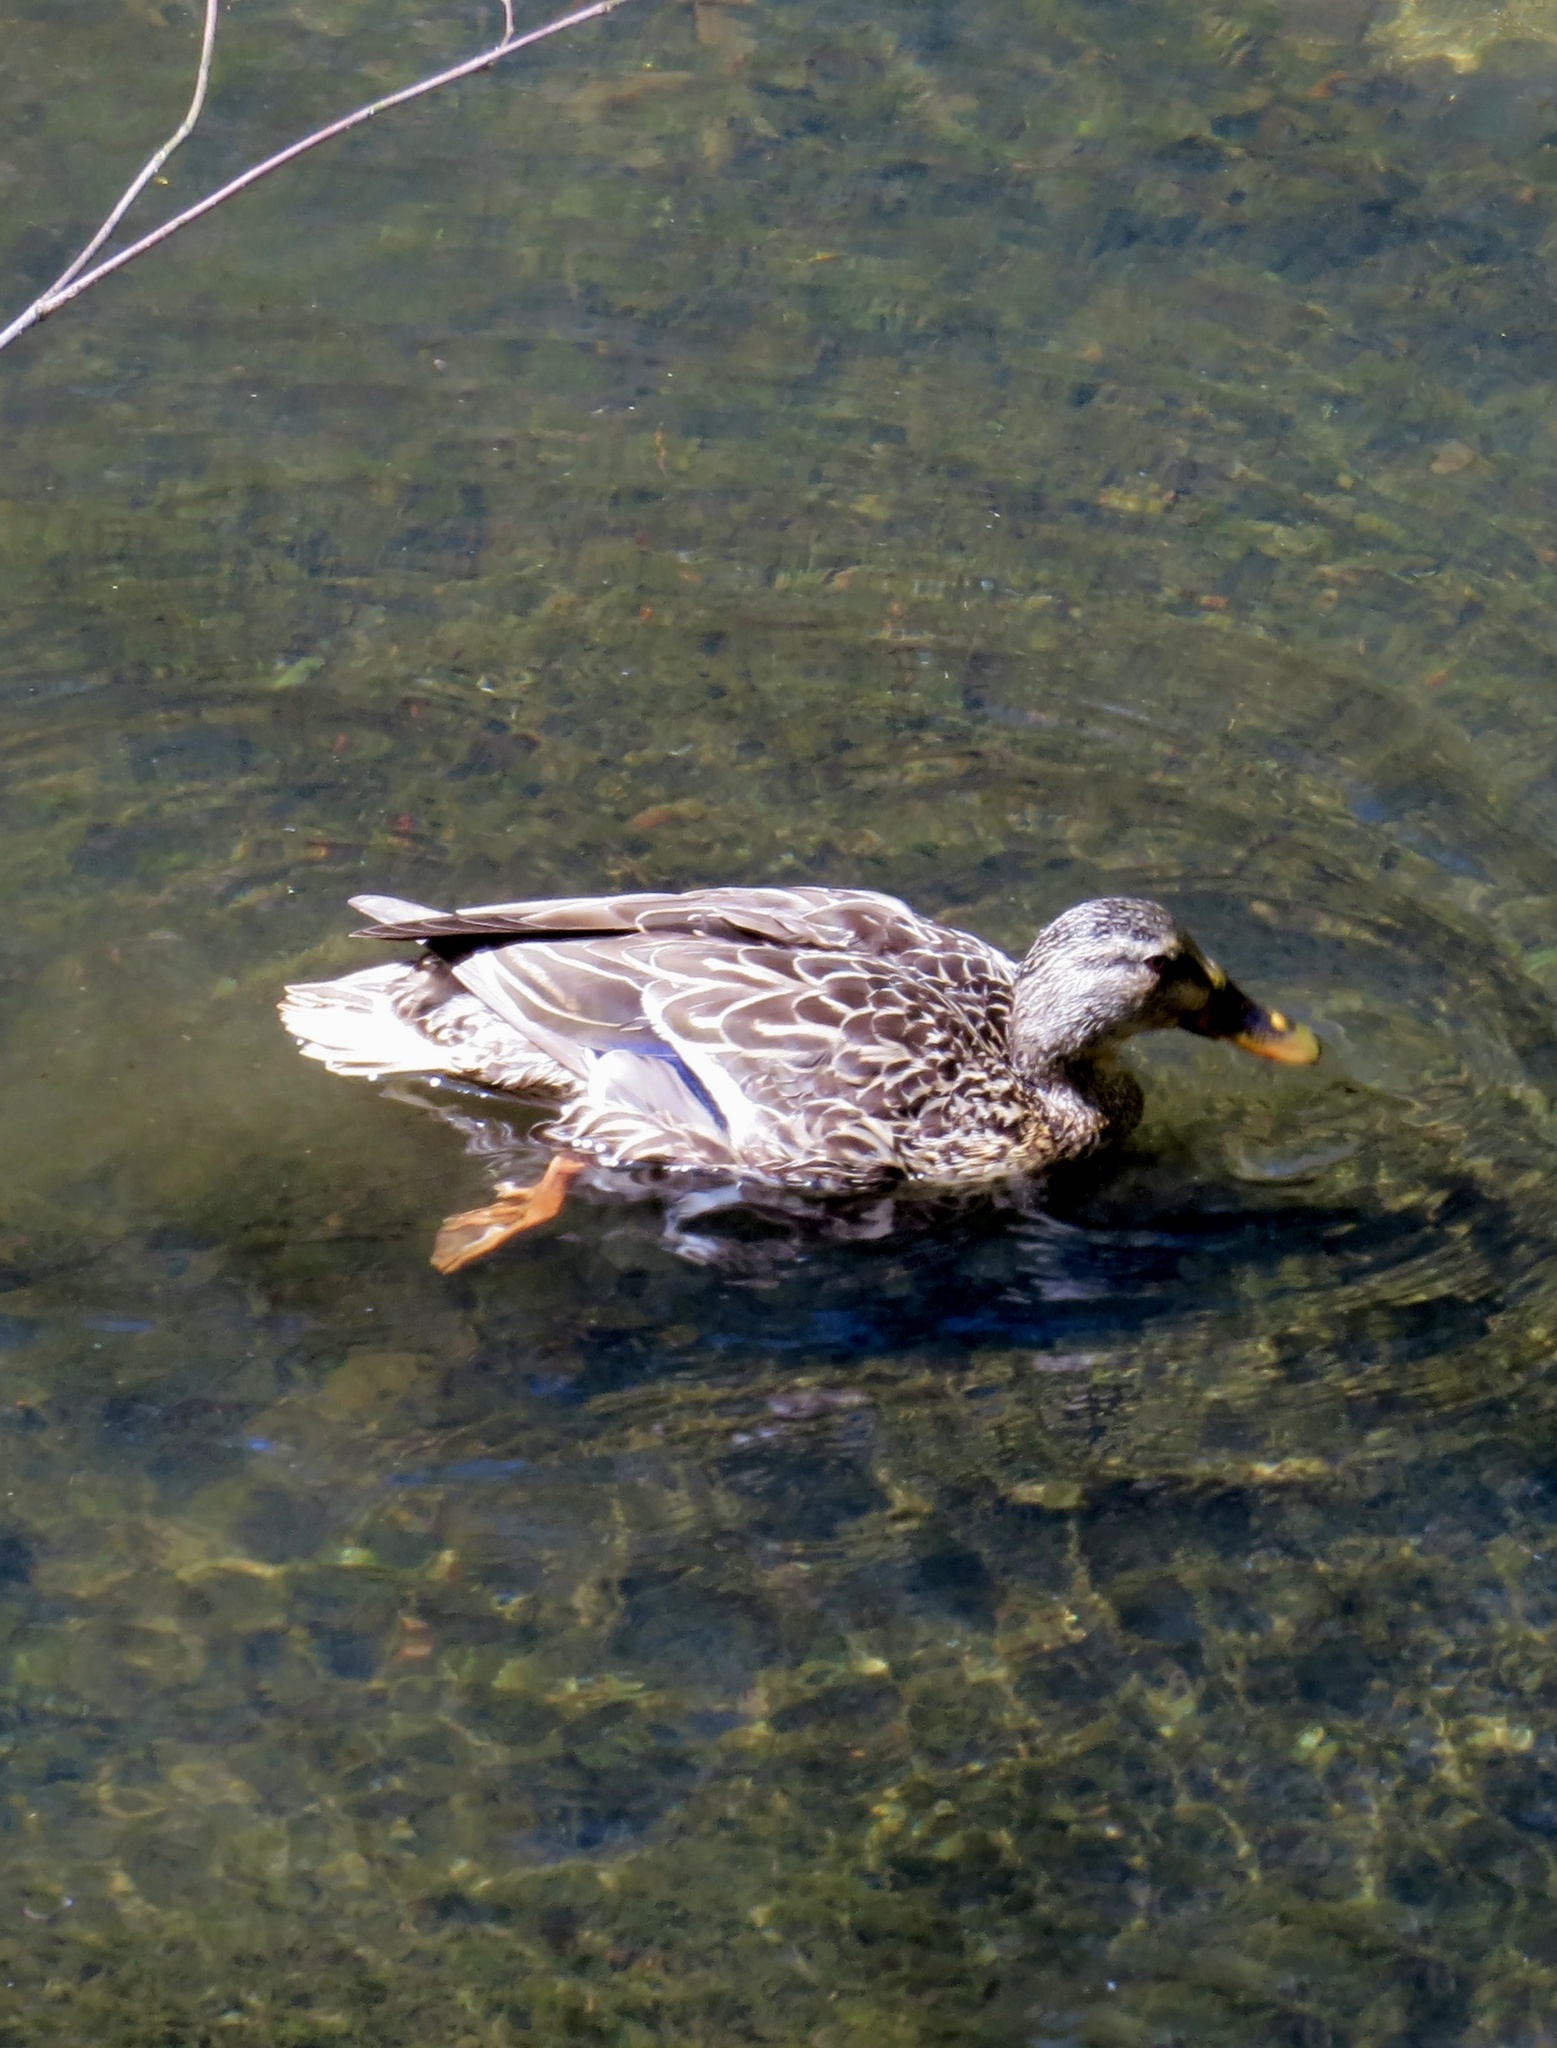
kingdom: Animalia
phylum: Chordata
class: Aves
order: Anseriformes
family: Anatidae
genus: Anas
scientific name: Anas platyrhynchos
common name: Mallard
